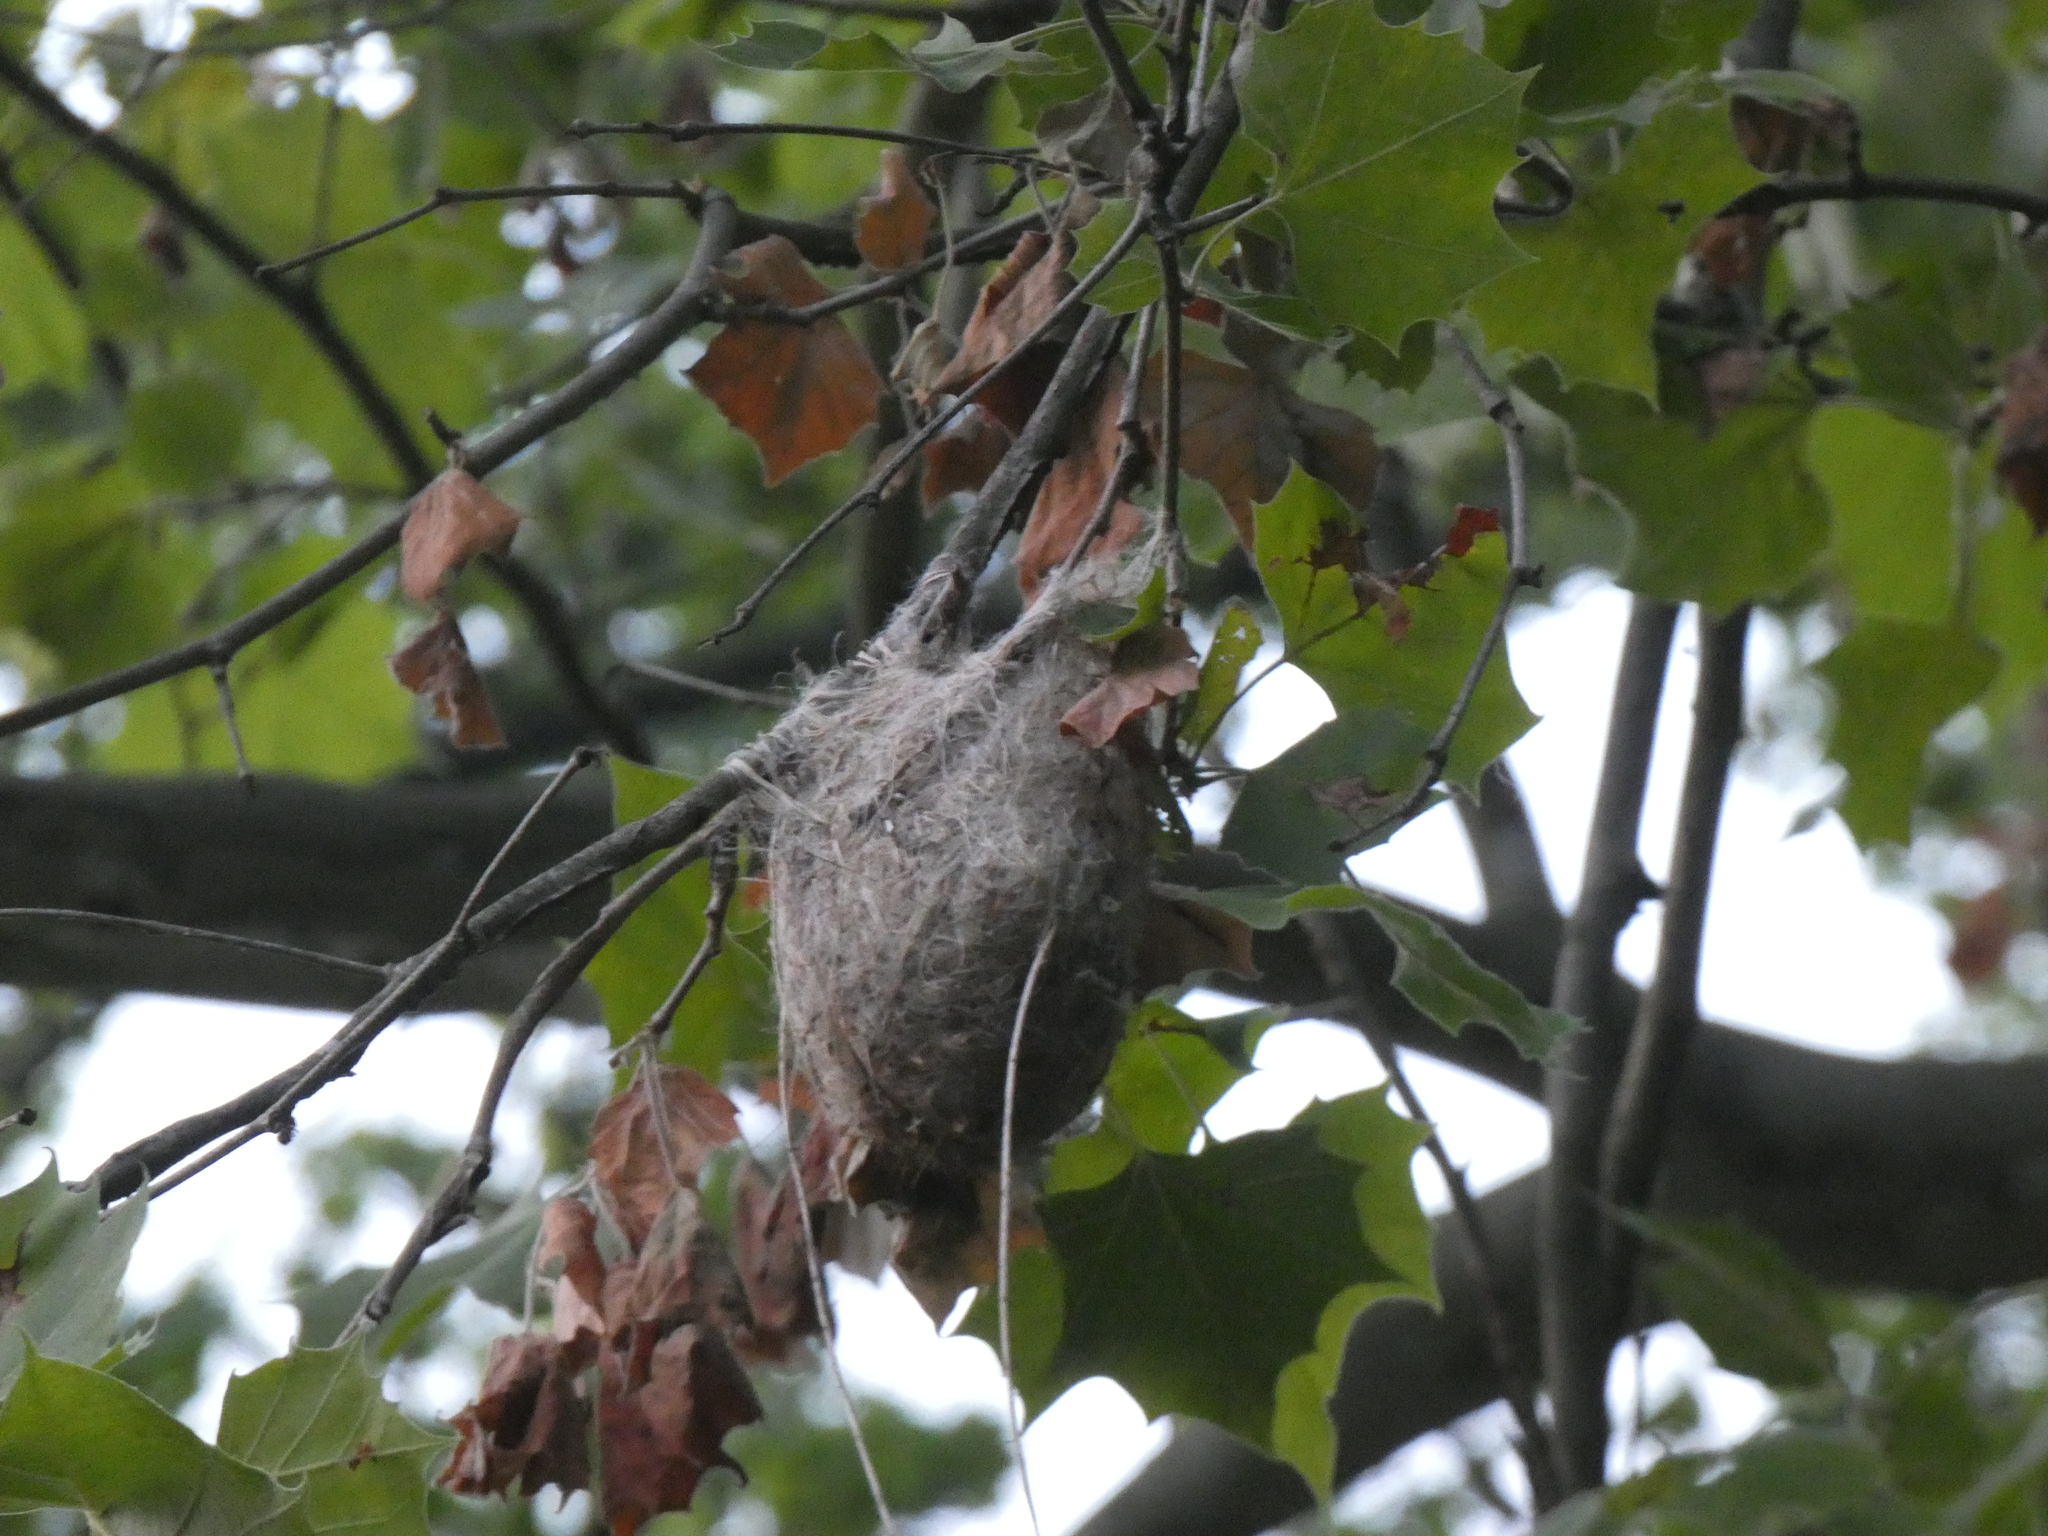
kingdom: Animalia
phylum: Chordata
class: Aves
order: Passeriformes
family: Icteridae
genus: Icterus
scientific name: Icterus galbula
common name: Baltimore oriole
